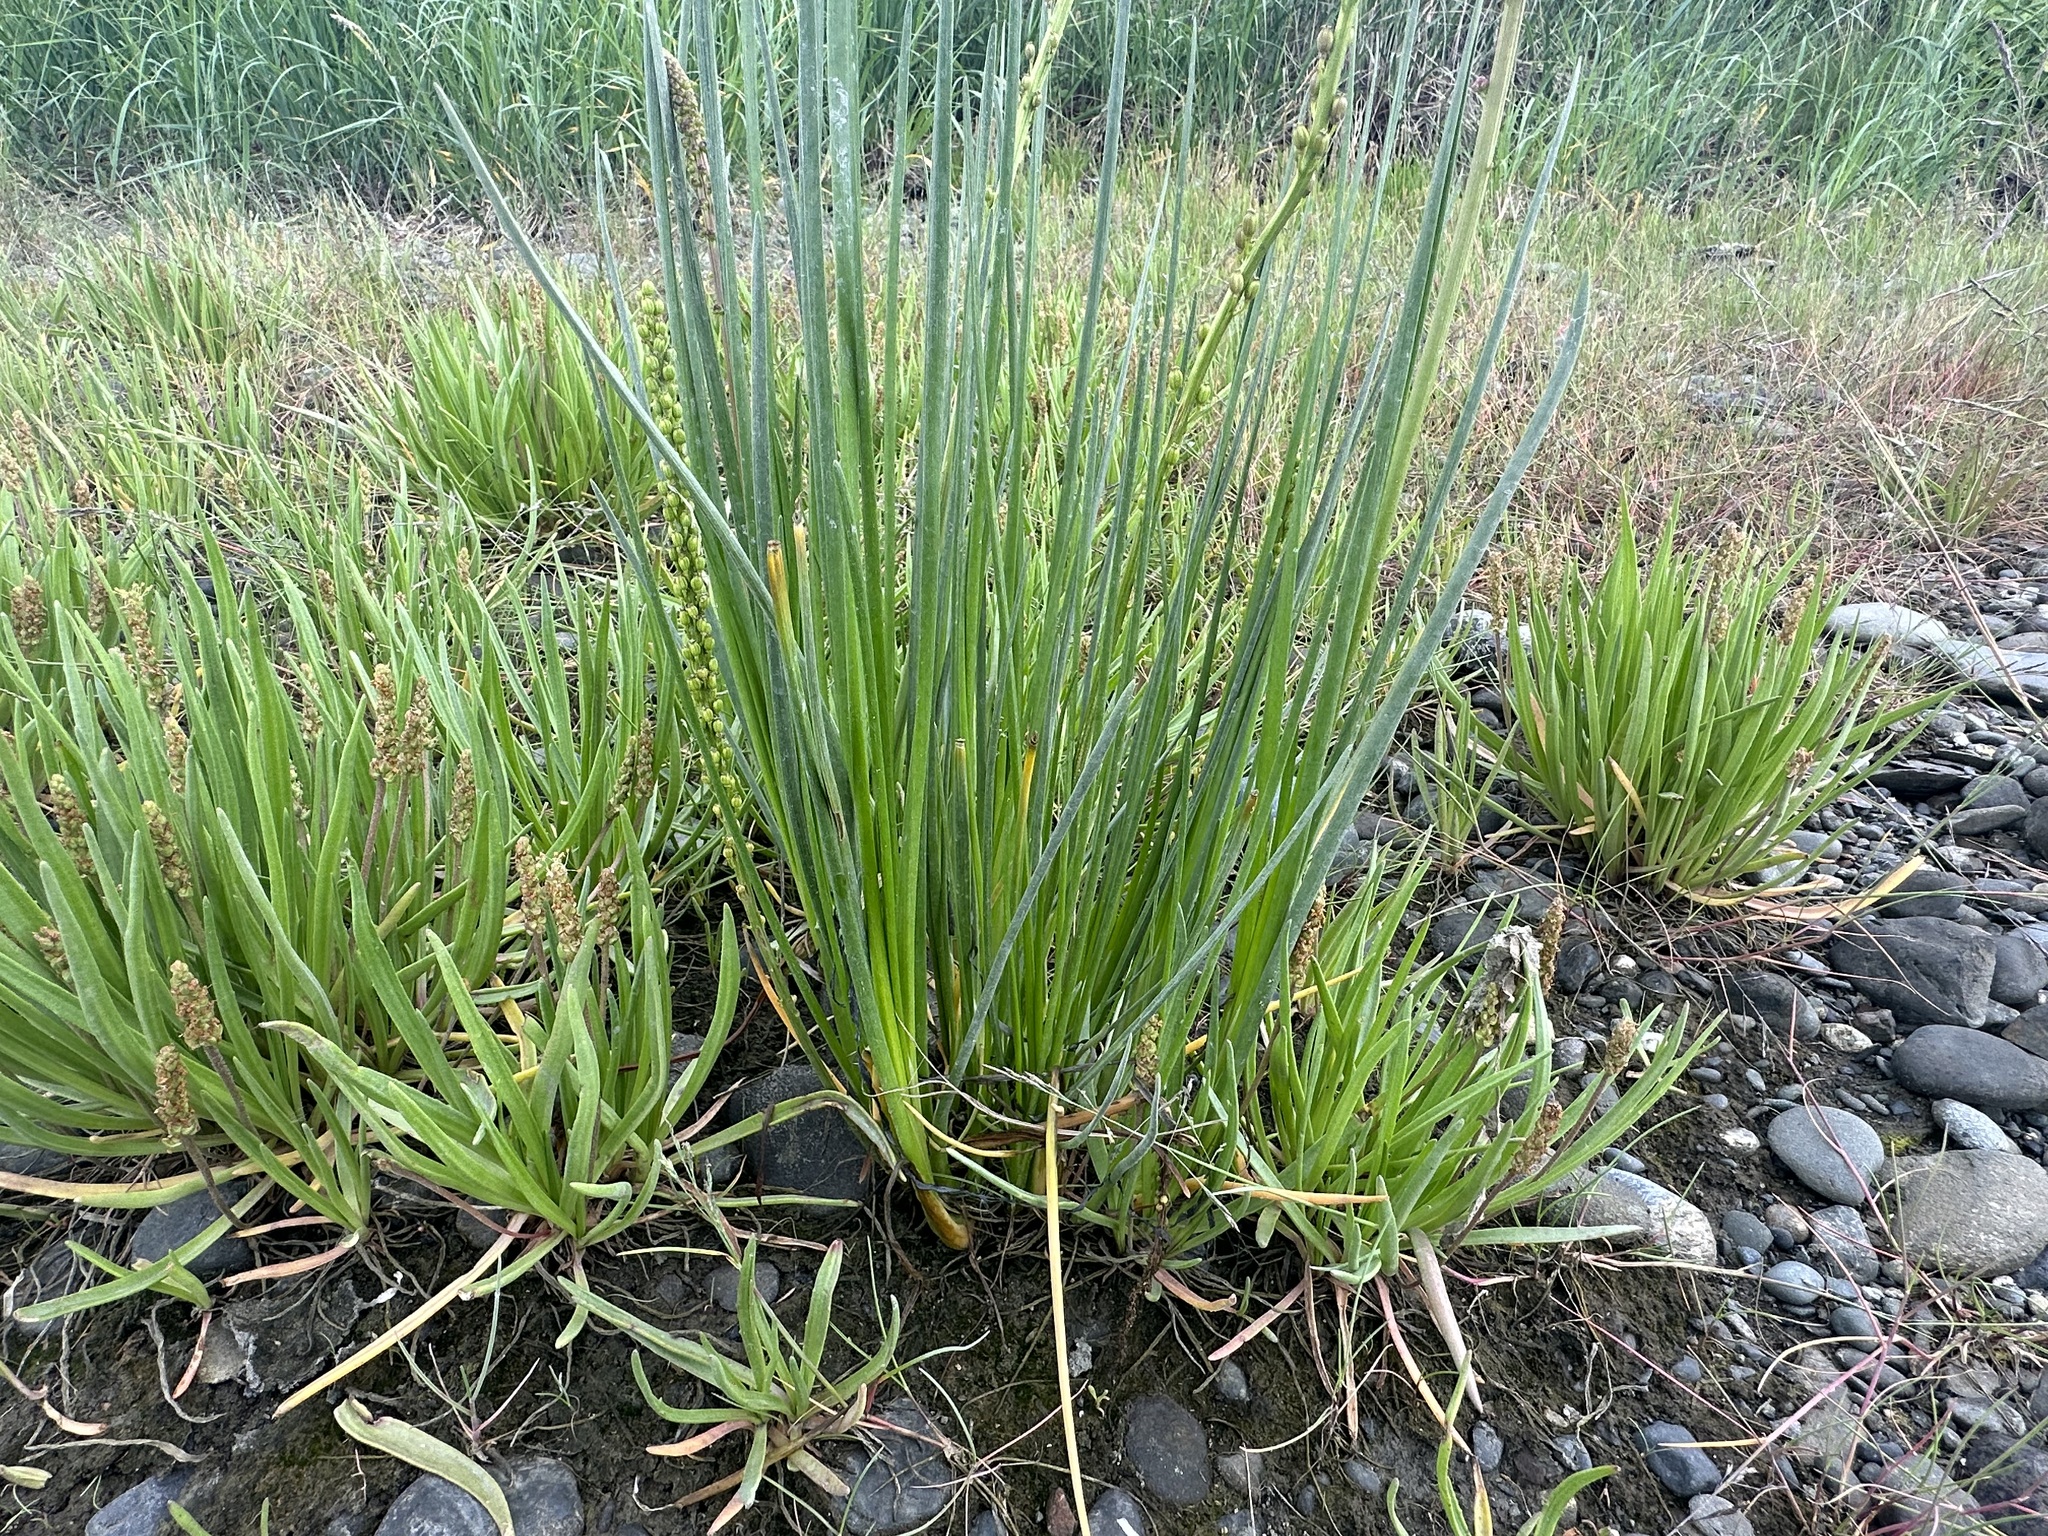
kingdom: Plantae
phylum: Tracheophyta
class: Liliopsida
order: Alismatales
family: Juncaginaceae
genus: Triglochin
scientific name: Triglochin maritima
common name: Sea arrowgrass
